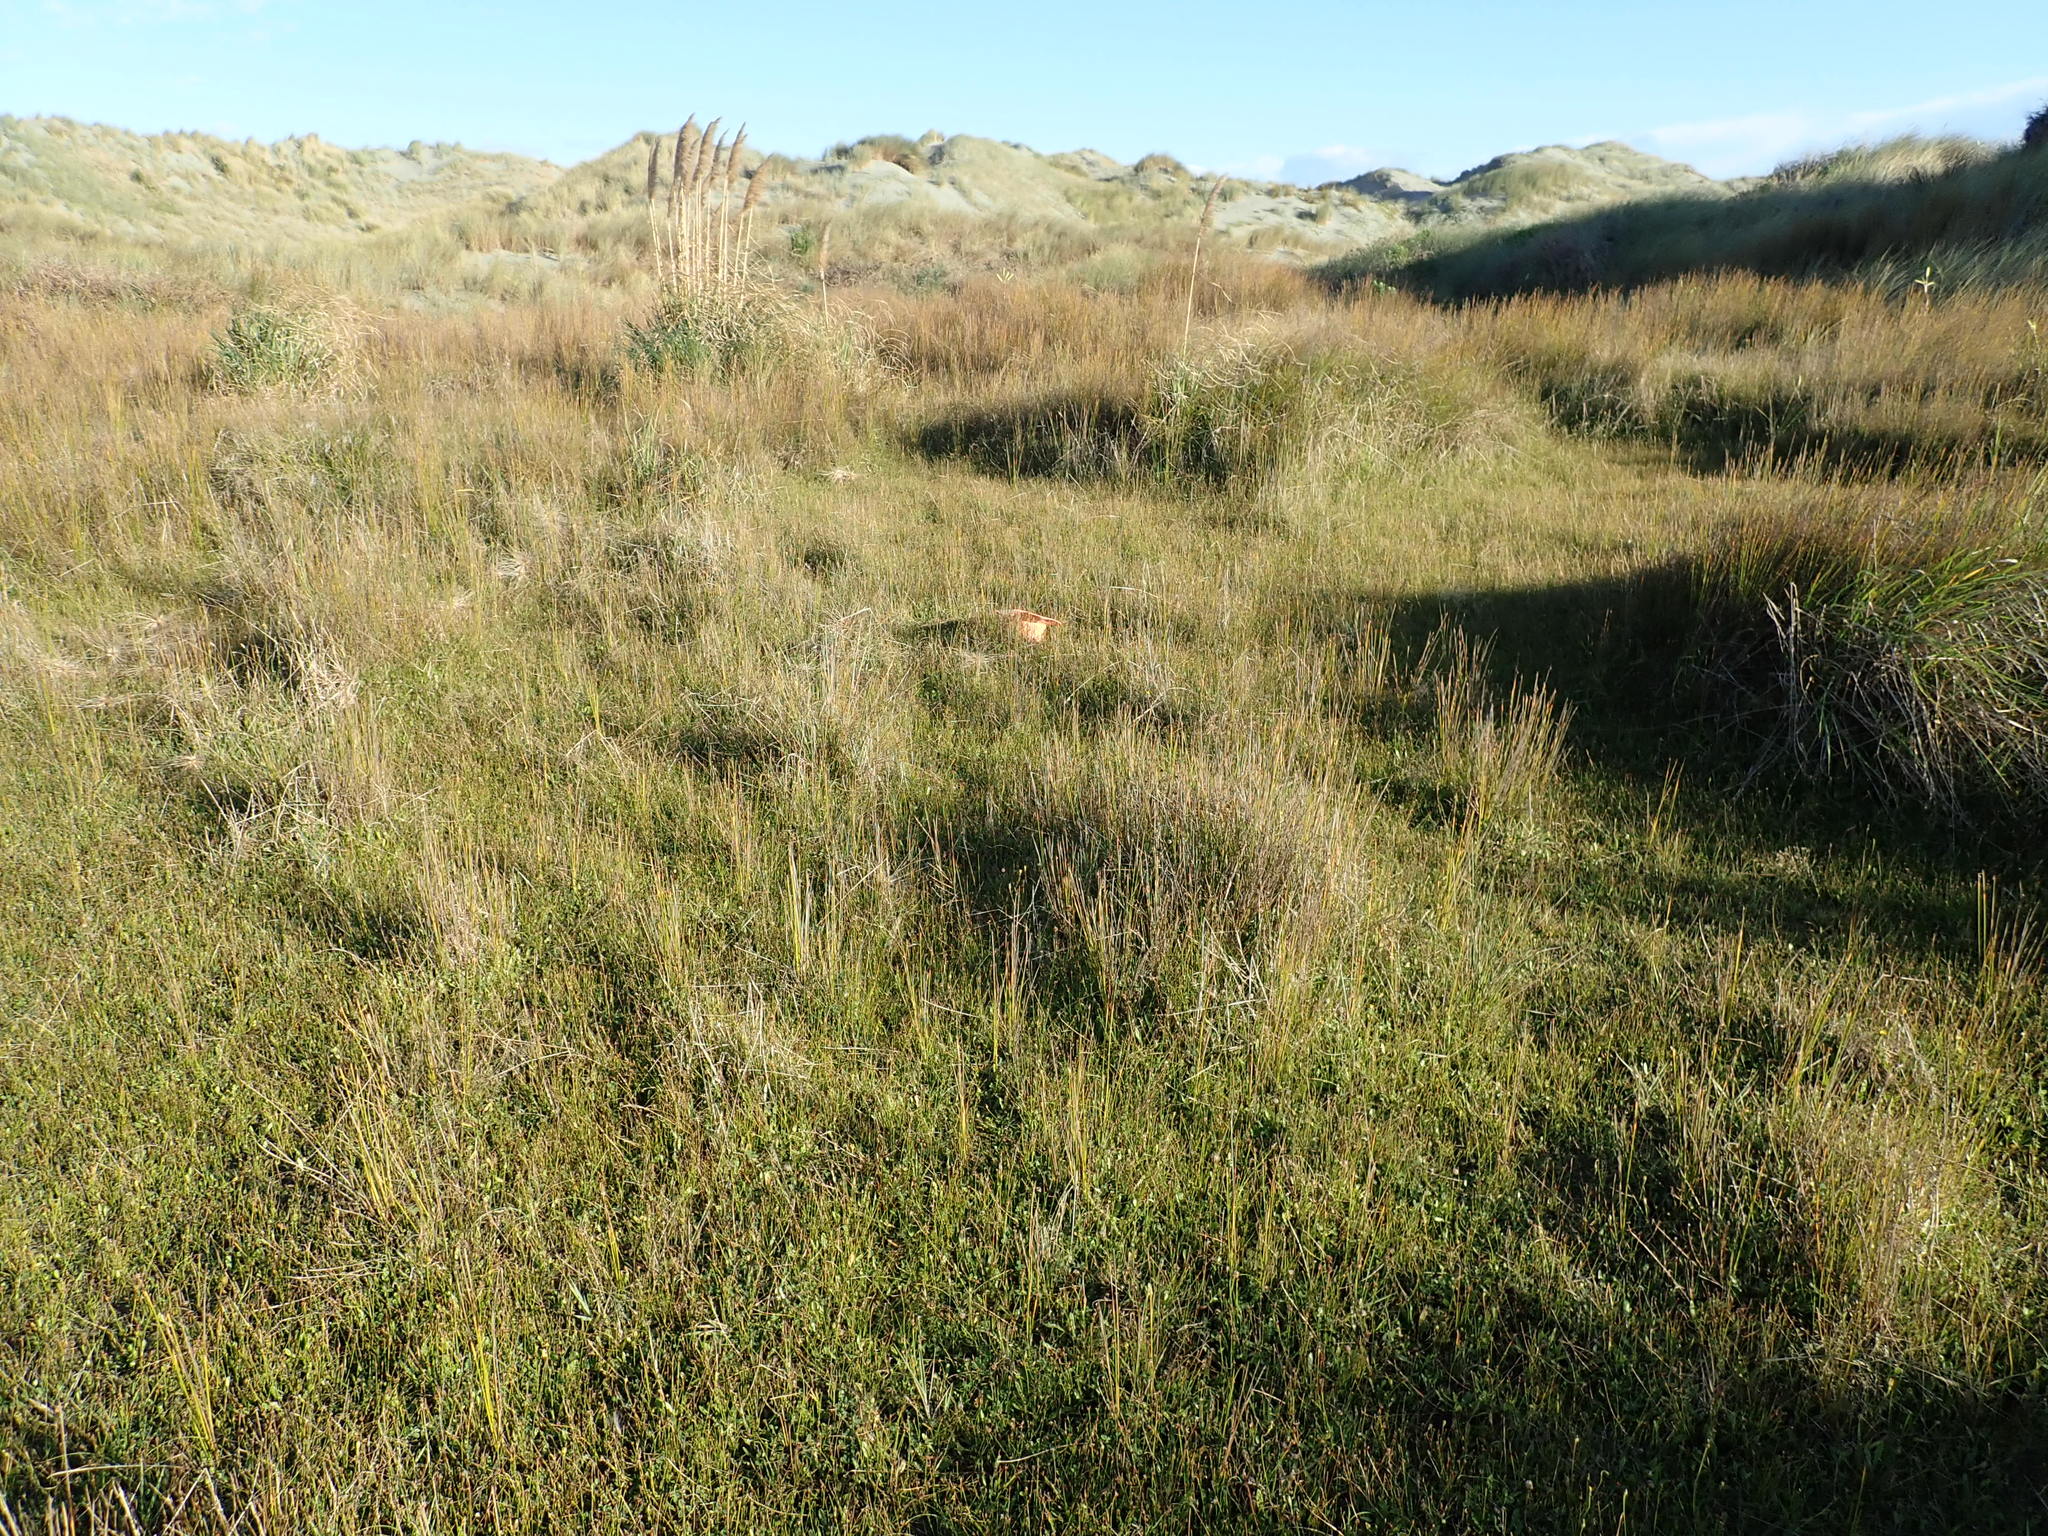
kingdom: Plantae
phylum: Tracheophyta
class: Magnoliopsida
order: Fabales
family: Fabaceae
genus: Trifolium
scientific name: Trifolium fragiferum
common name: Strawberry clover
